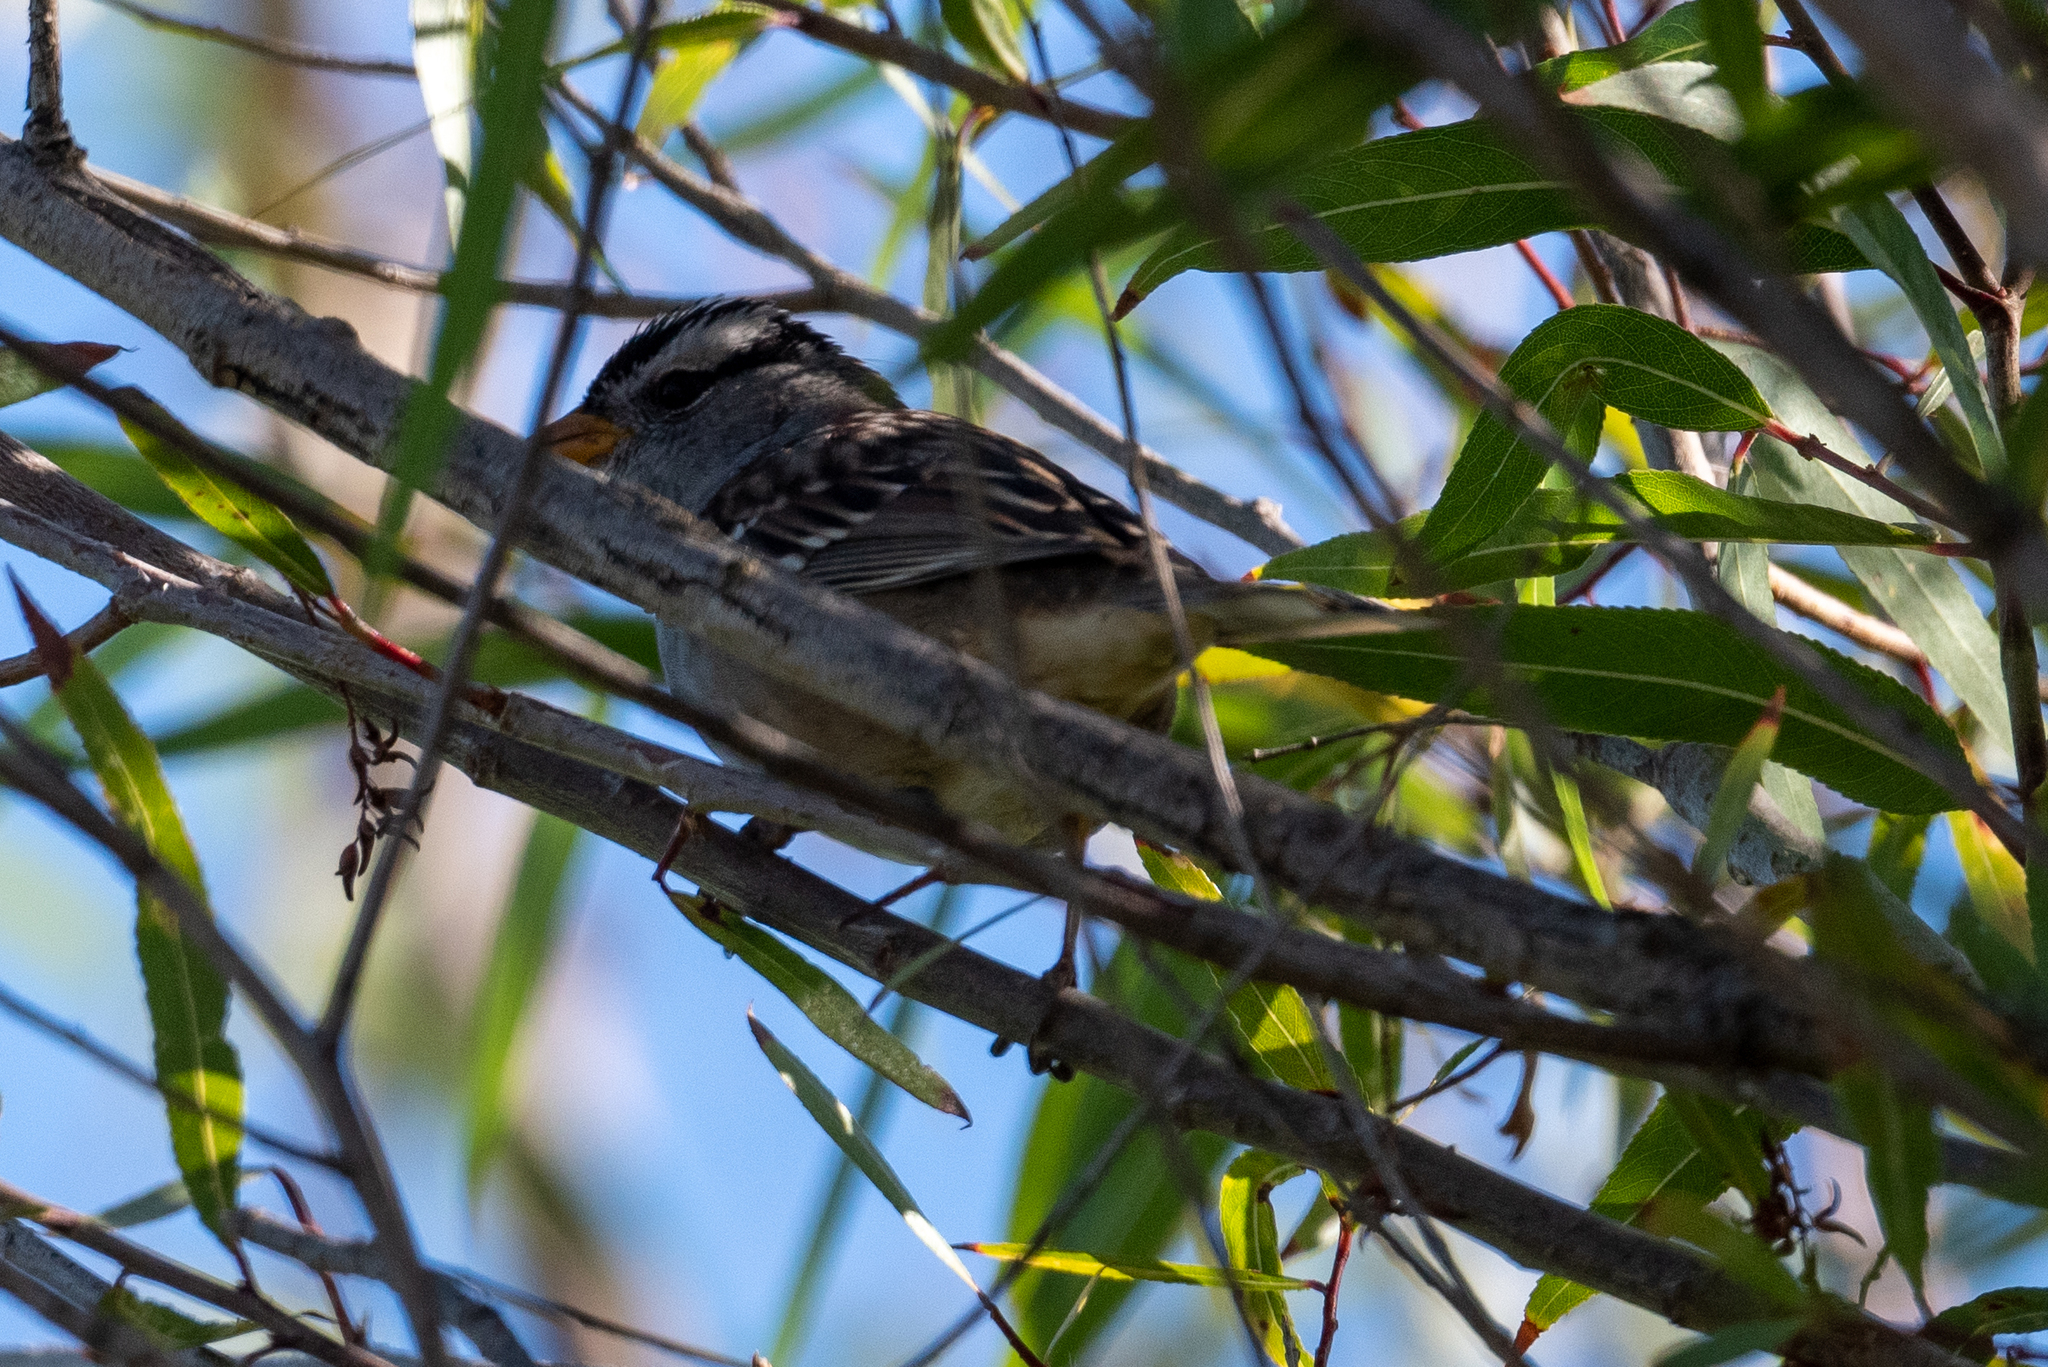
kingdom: Animalia
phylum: Chordata
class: Aves
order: Passeriformes
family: Passerellidae
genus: Zonotrichia
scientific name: Zonotrichia leucophrys
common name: White-crowned sparrow
